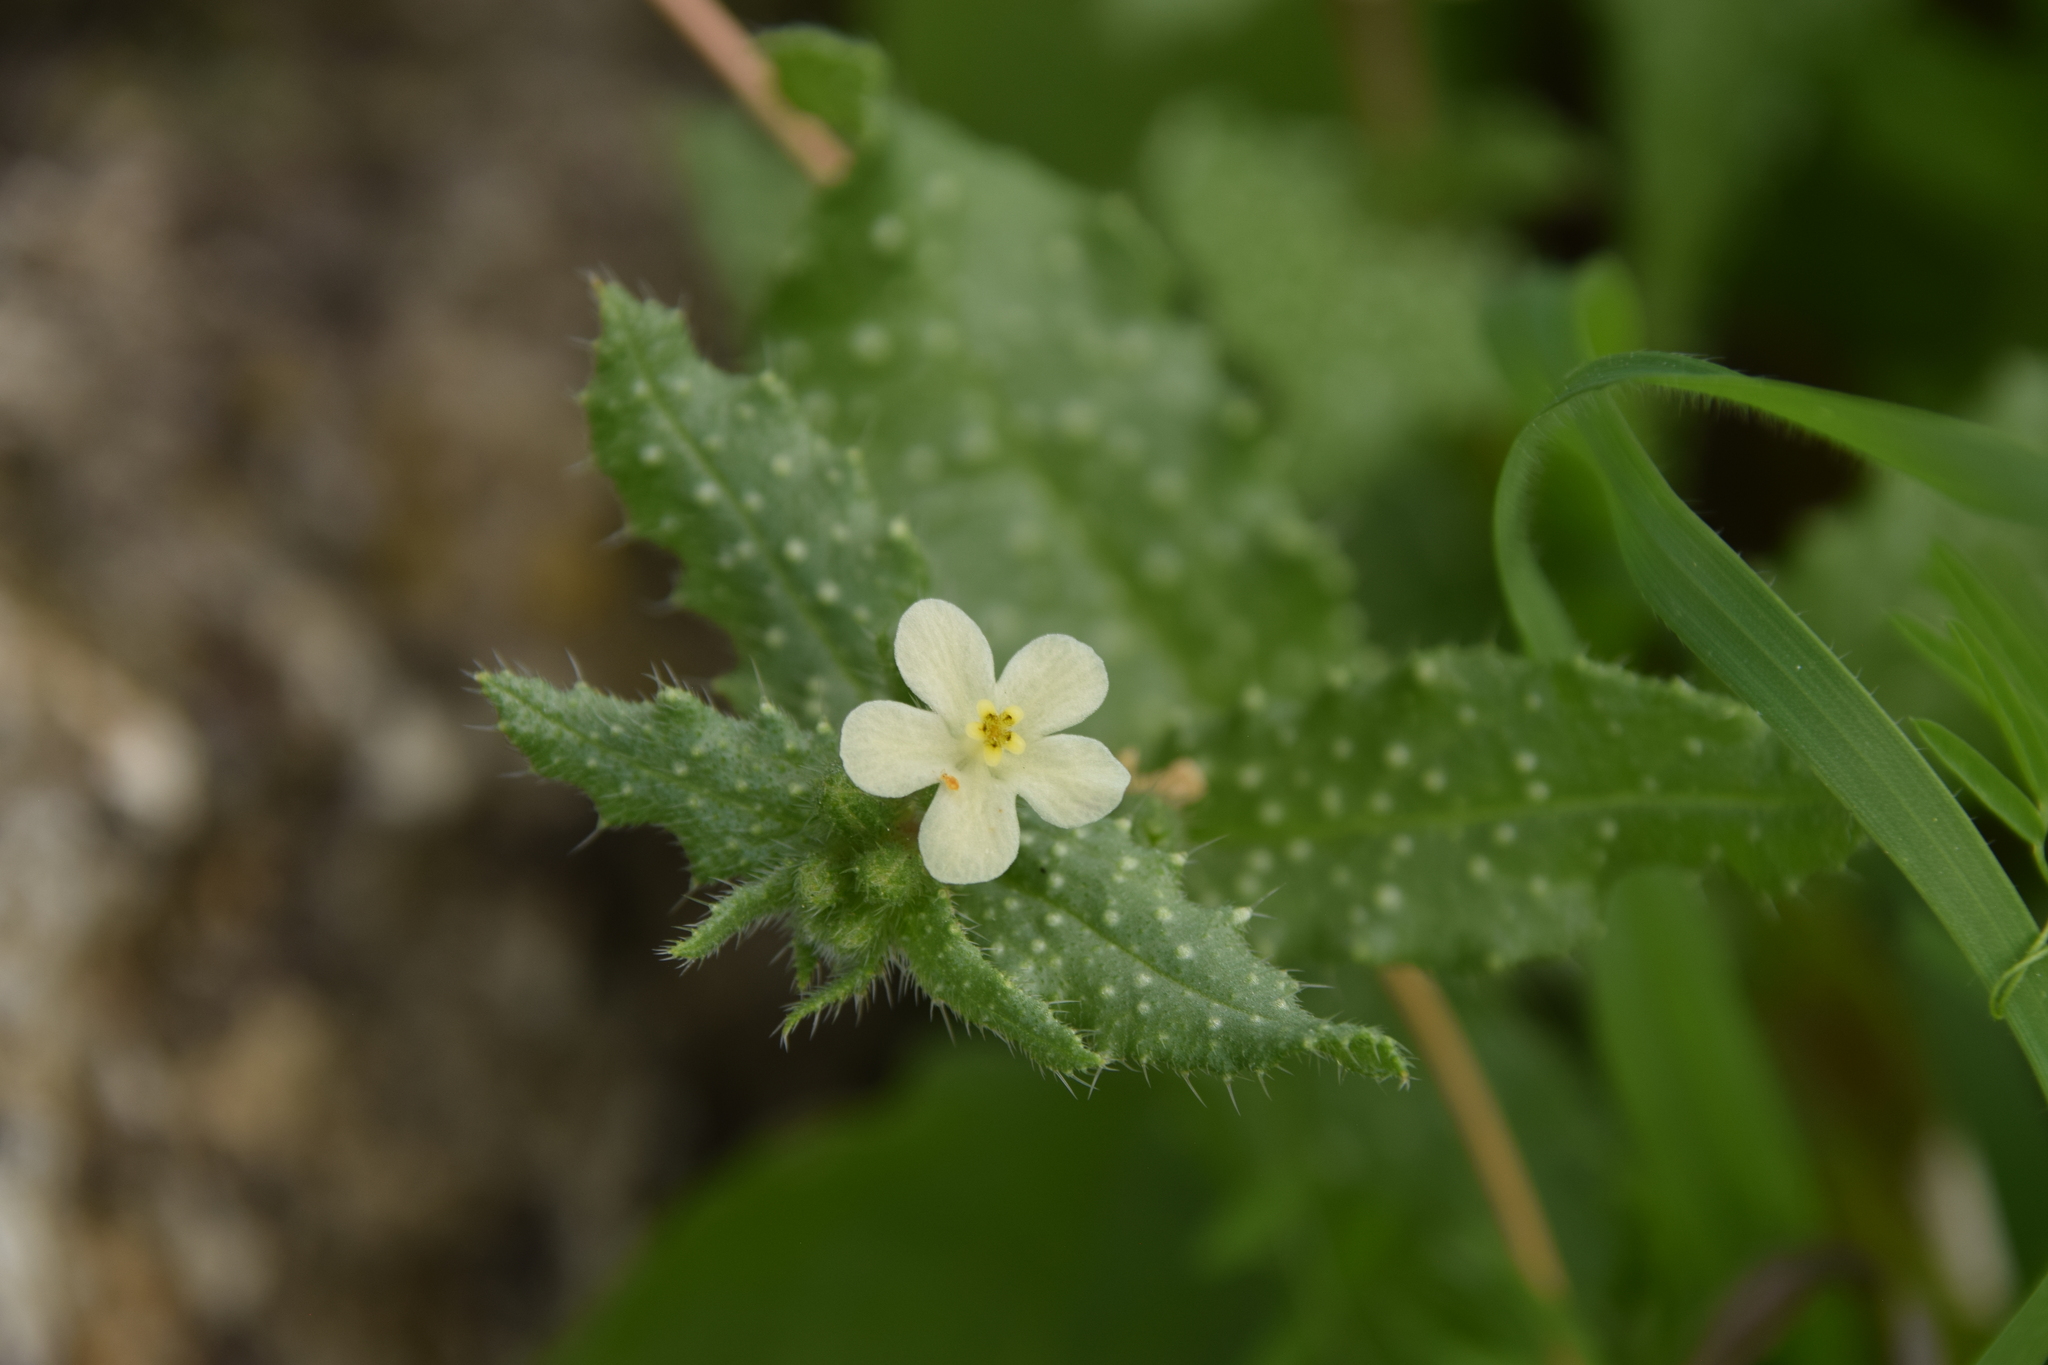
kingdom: Plantae
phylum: Tracheophyta
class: Magnoliopsida
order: Boraginales
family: Boraginaceae
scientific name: Boraginaceae
